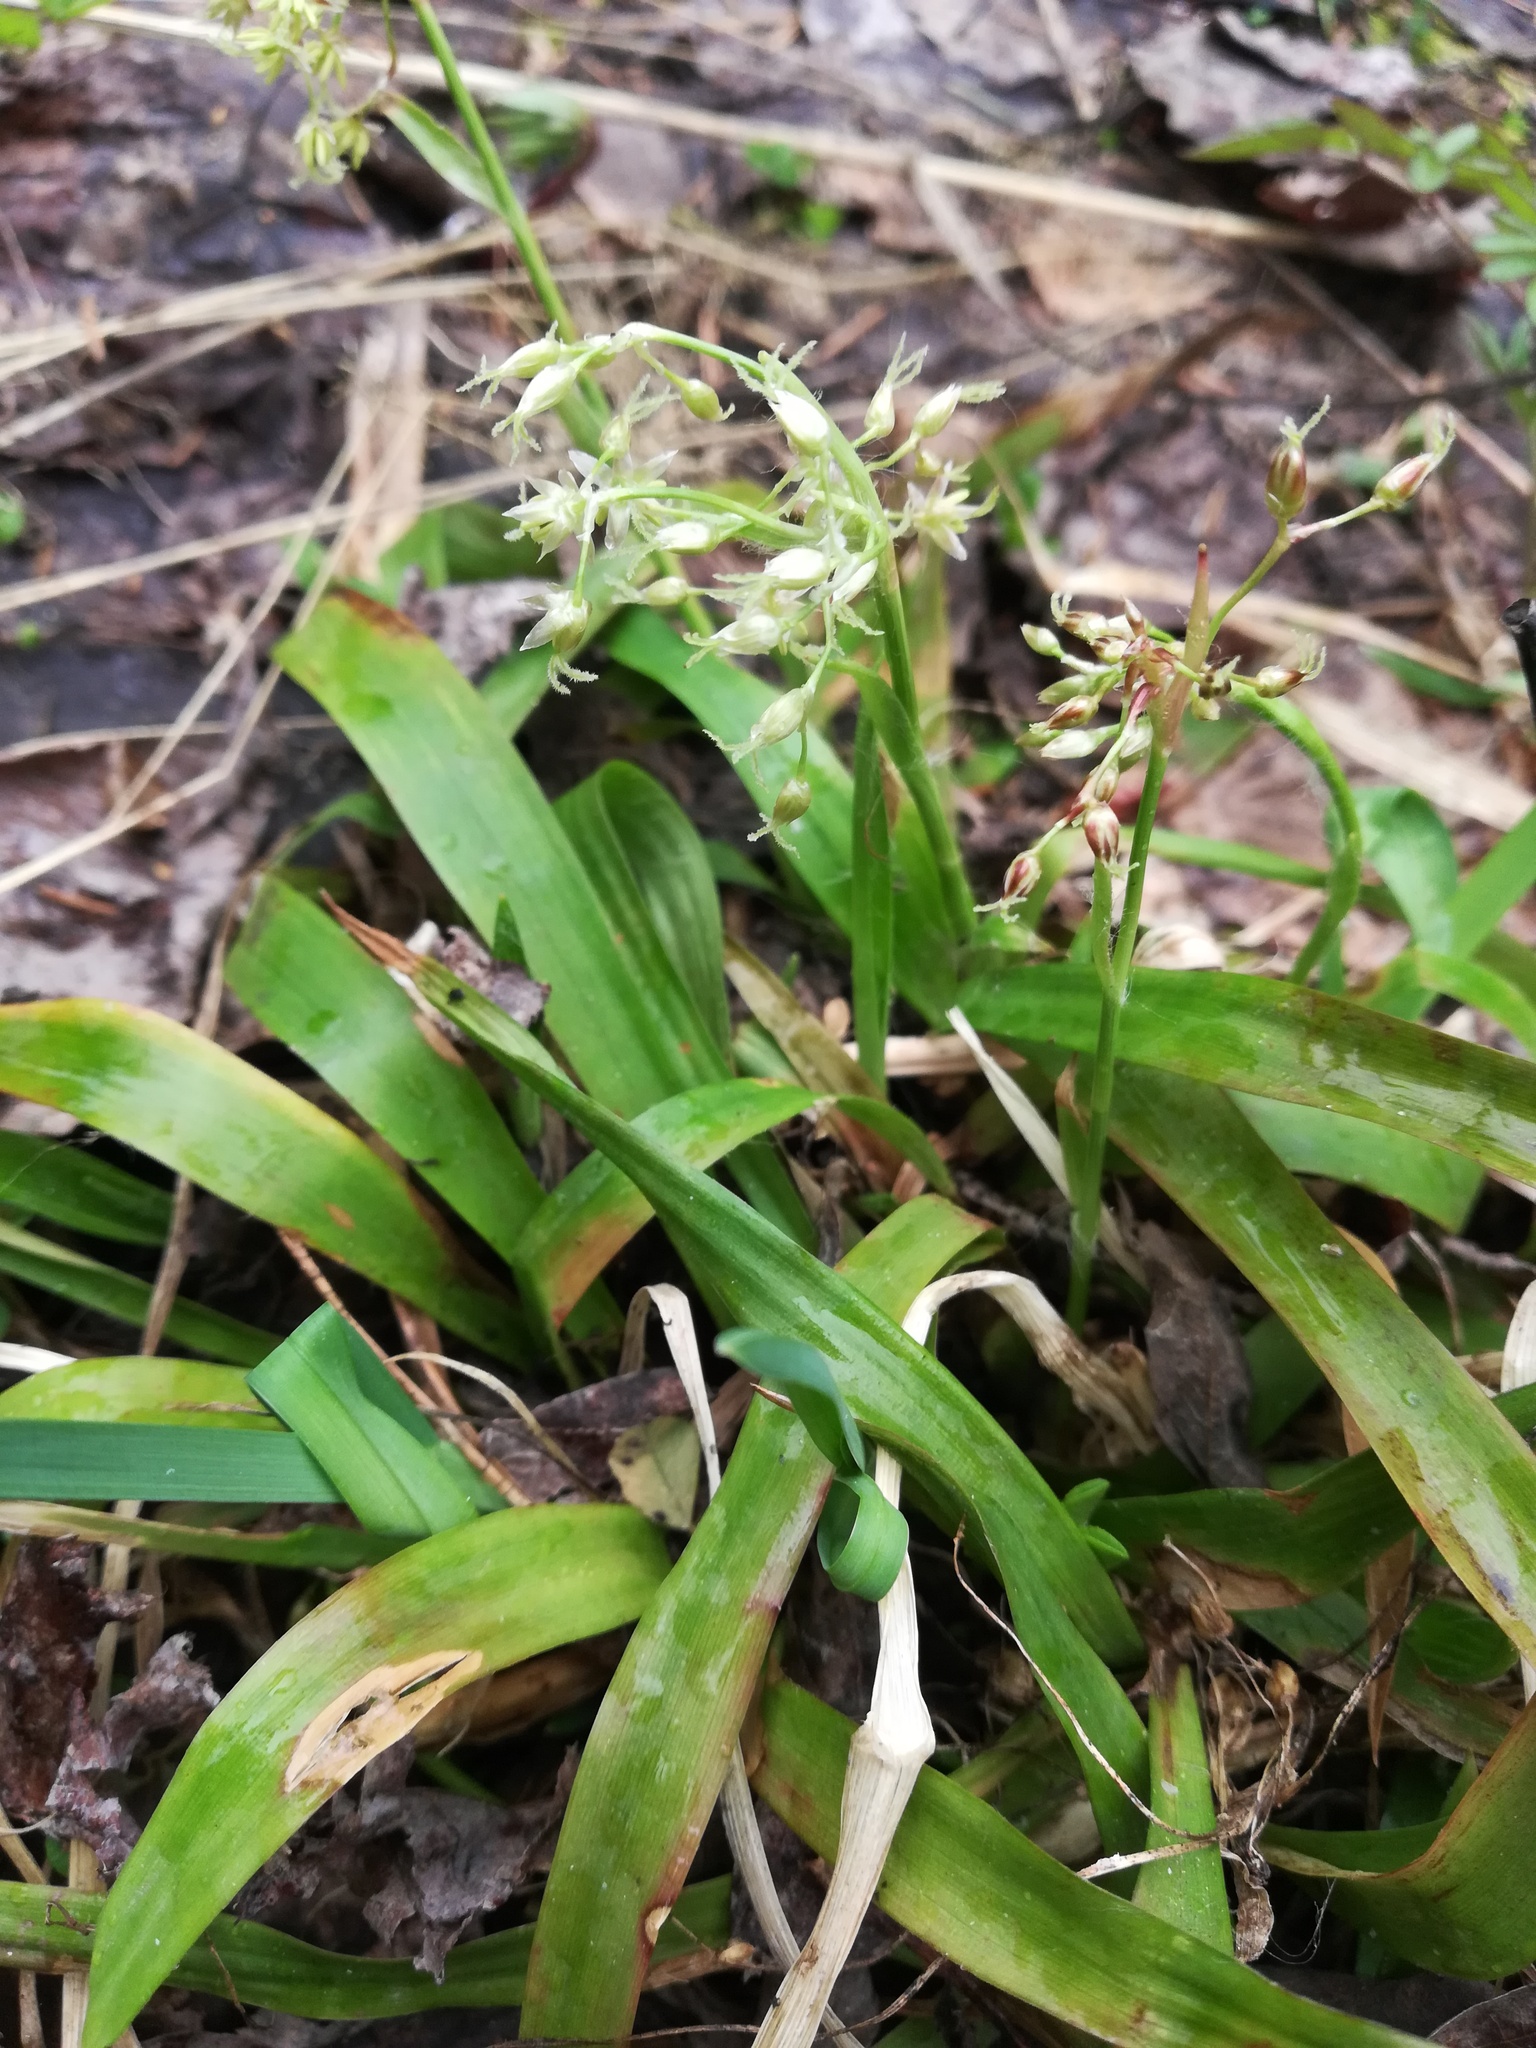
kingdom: Plantae
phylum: Tracheophyta
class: Liliopsida
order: Poales
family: Juncaceae
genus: Luzula
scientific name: Luzula pilosa
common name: Hairy wood-rush
